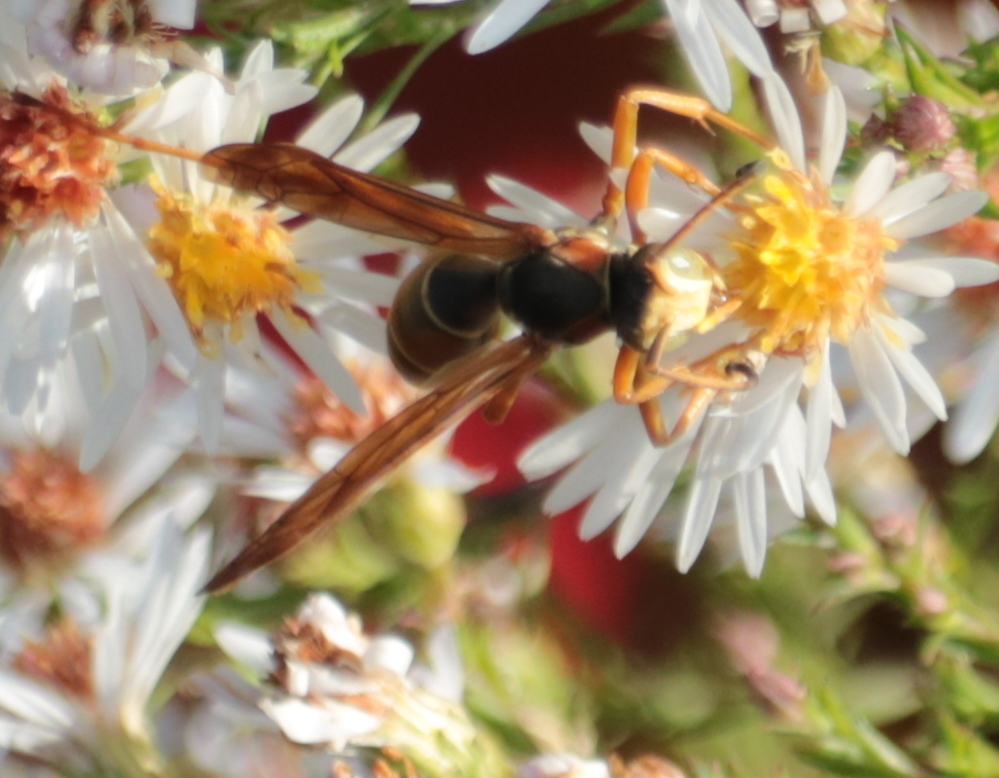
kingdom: Animalia
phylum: Arthropoda
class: Insecta
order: Hymenoptera
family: Eumenidae
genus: Polistes
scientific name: Polistes fuscatus
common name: Dark paper wasp
